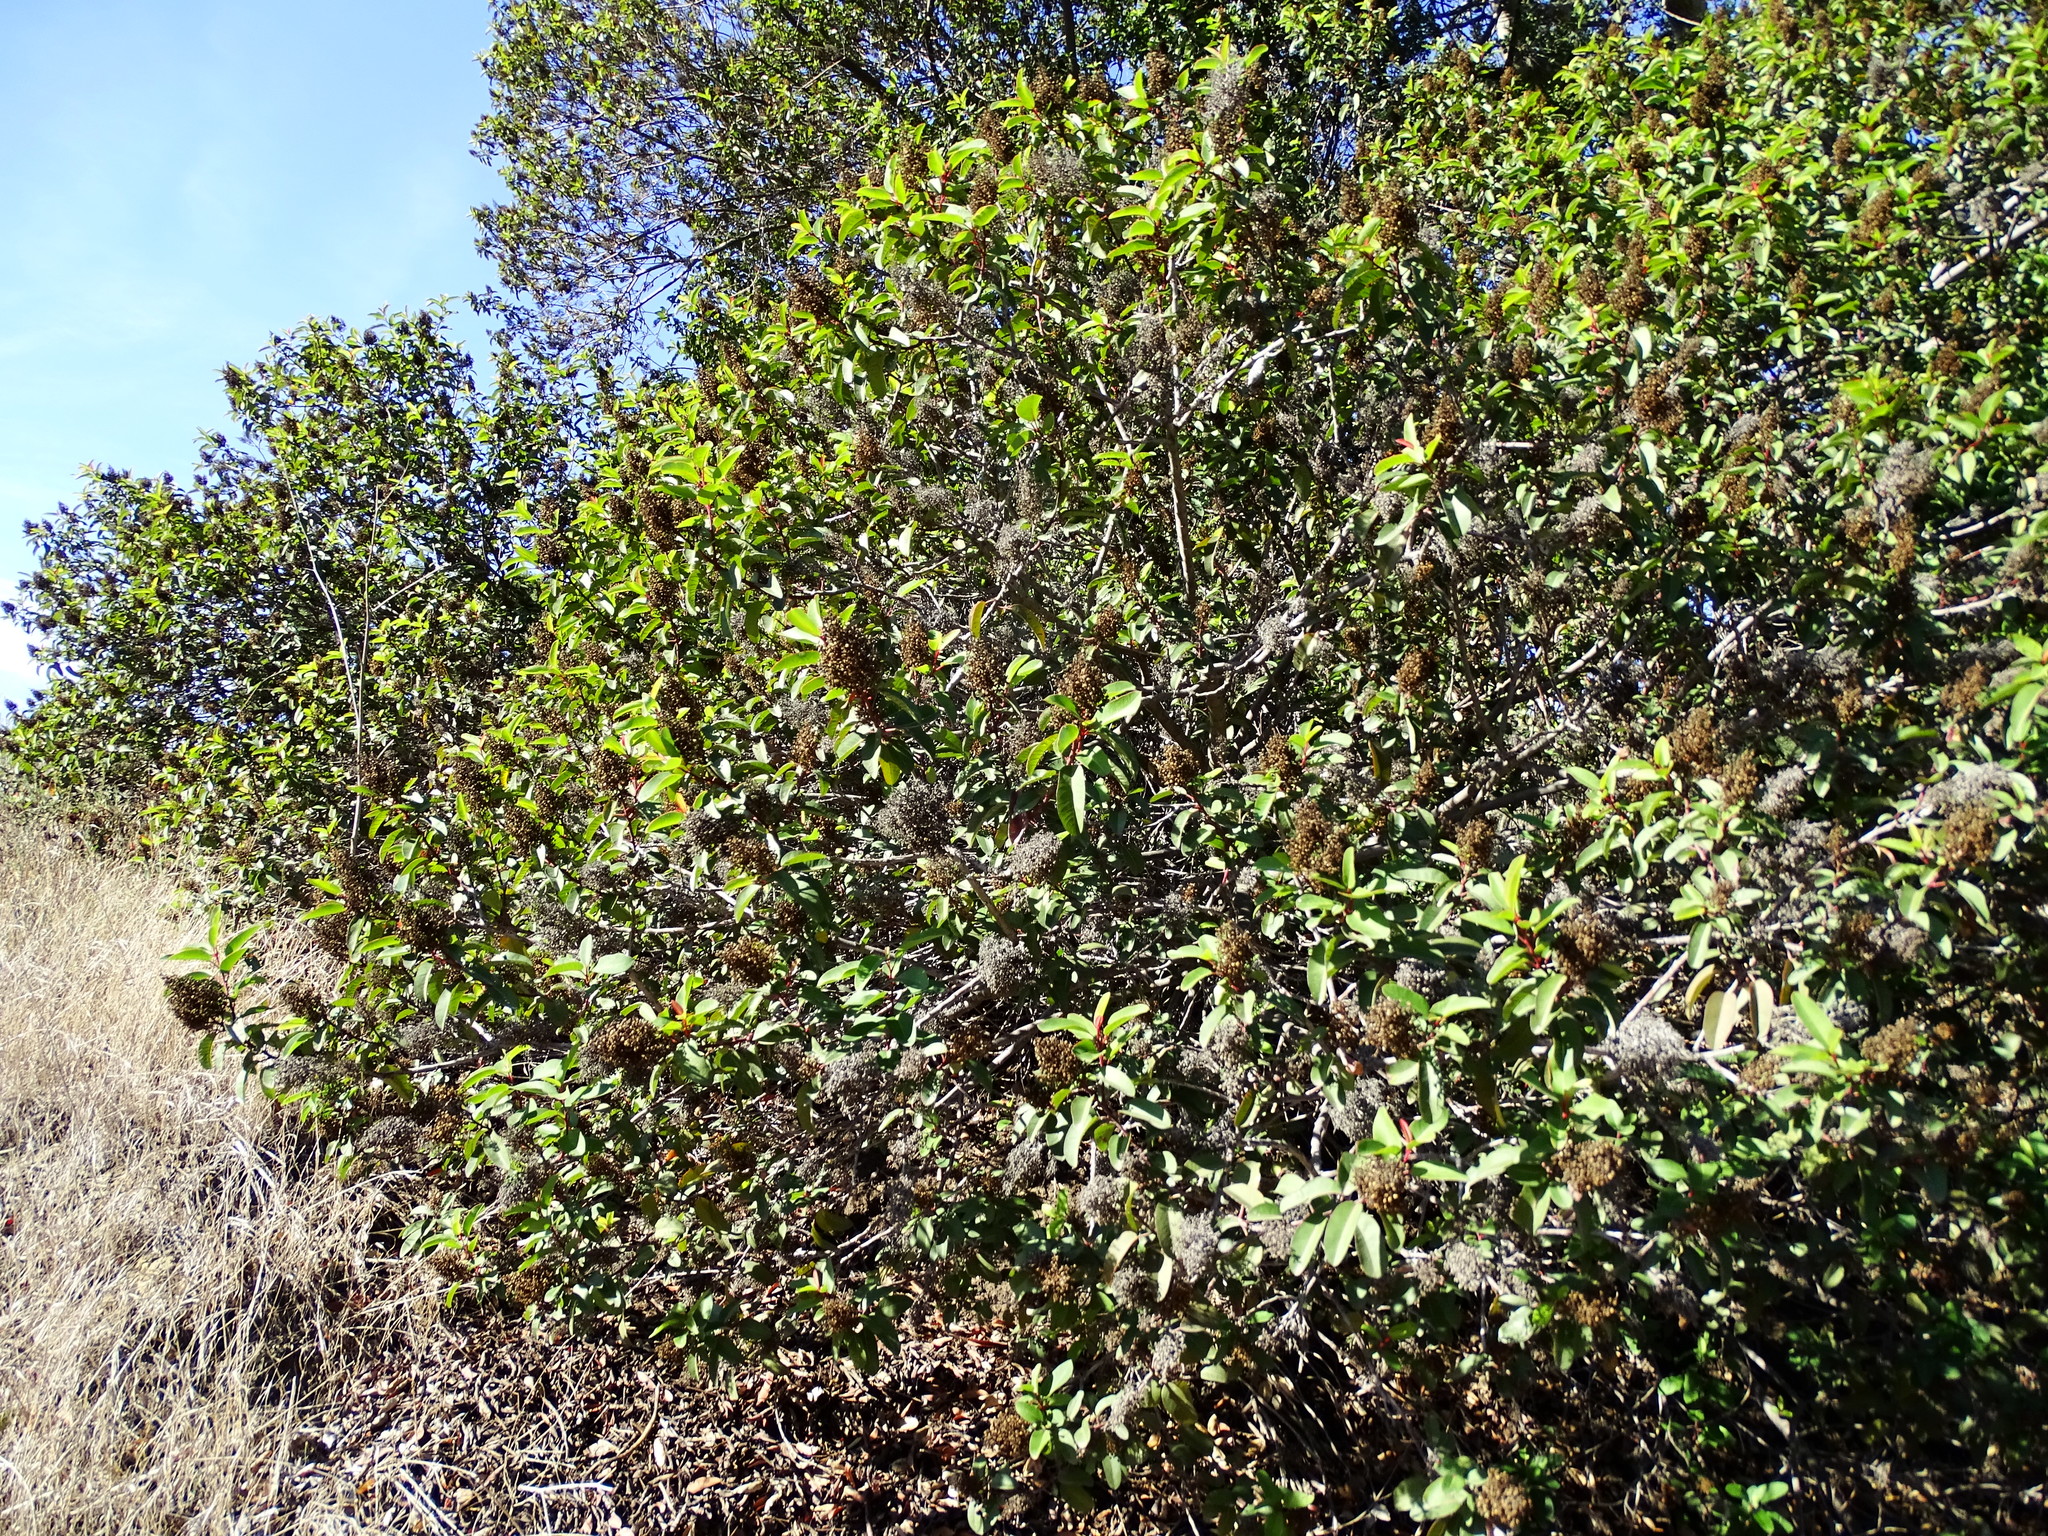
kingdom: Plantae
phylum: Tracheophyta
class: Magnoliopsida
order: Sapindales
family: Anacardiaceae
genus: Malosma
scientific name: Malosma laurina
